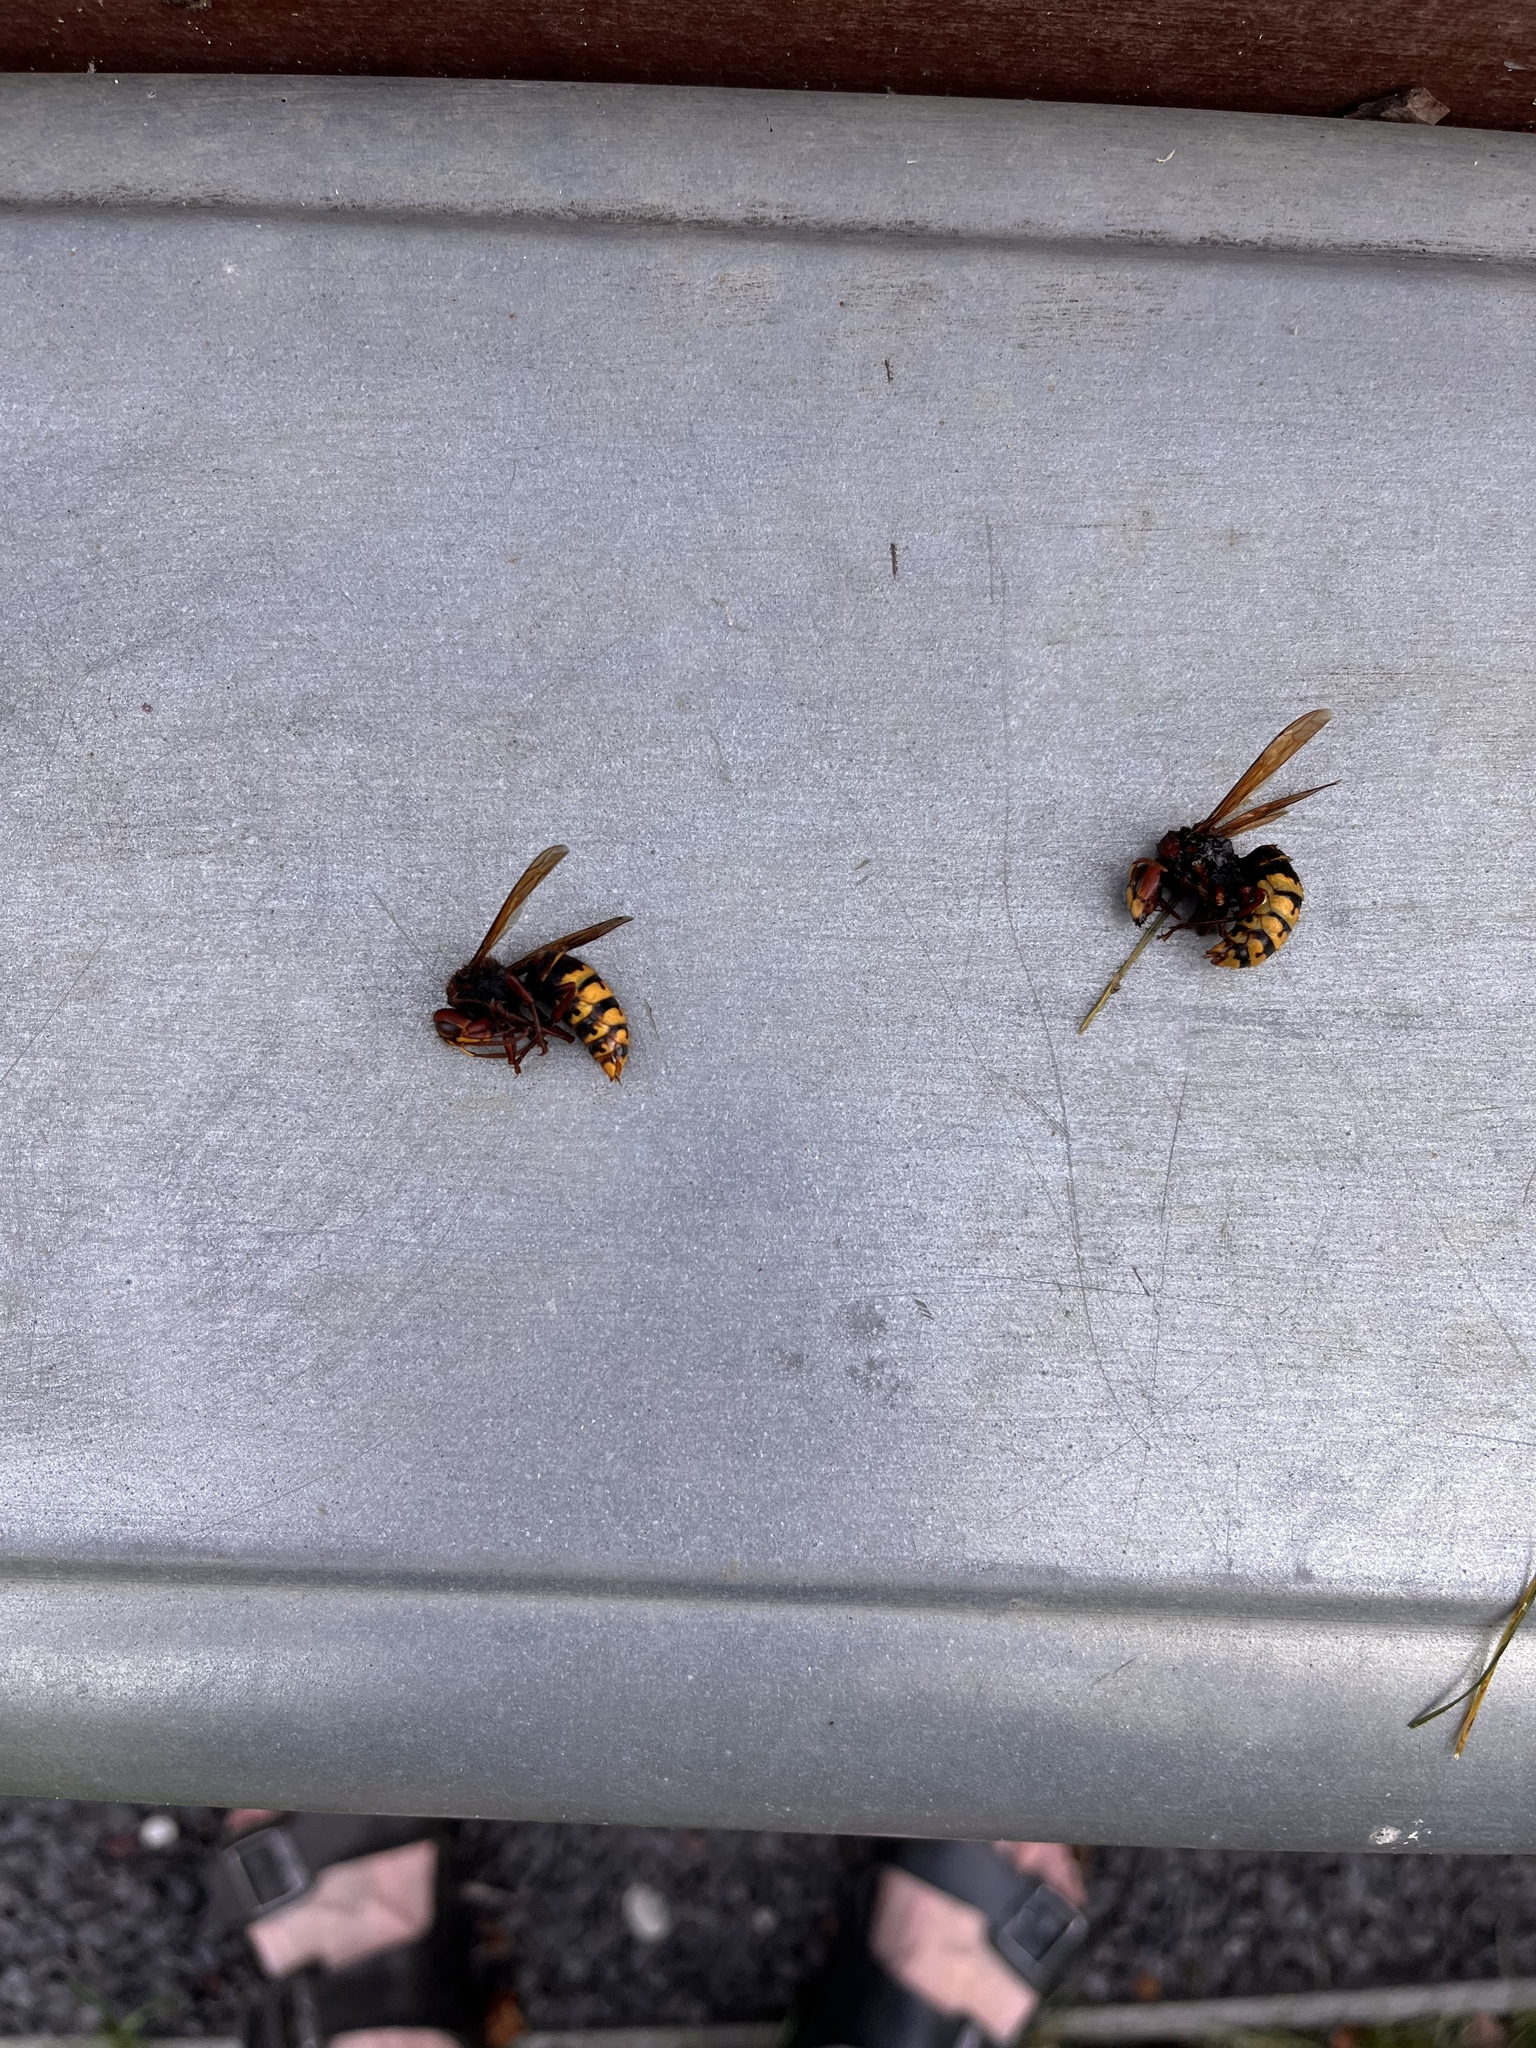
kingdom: Animalia
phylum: Arthropoda
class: Insecta
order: Hymenoptera
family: Vespidae
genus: Vespa
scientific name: Vespa crabro
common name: Hornet
